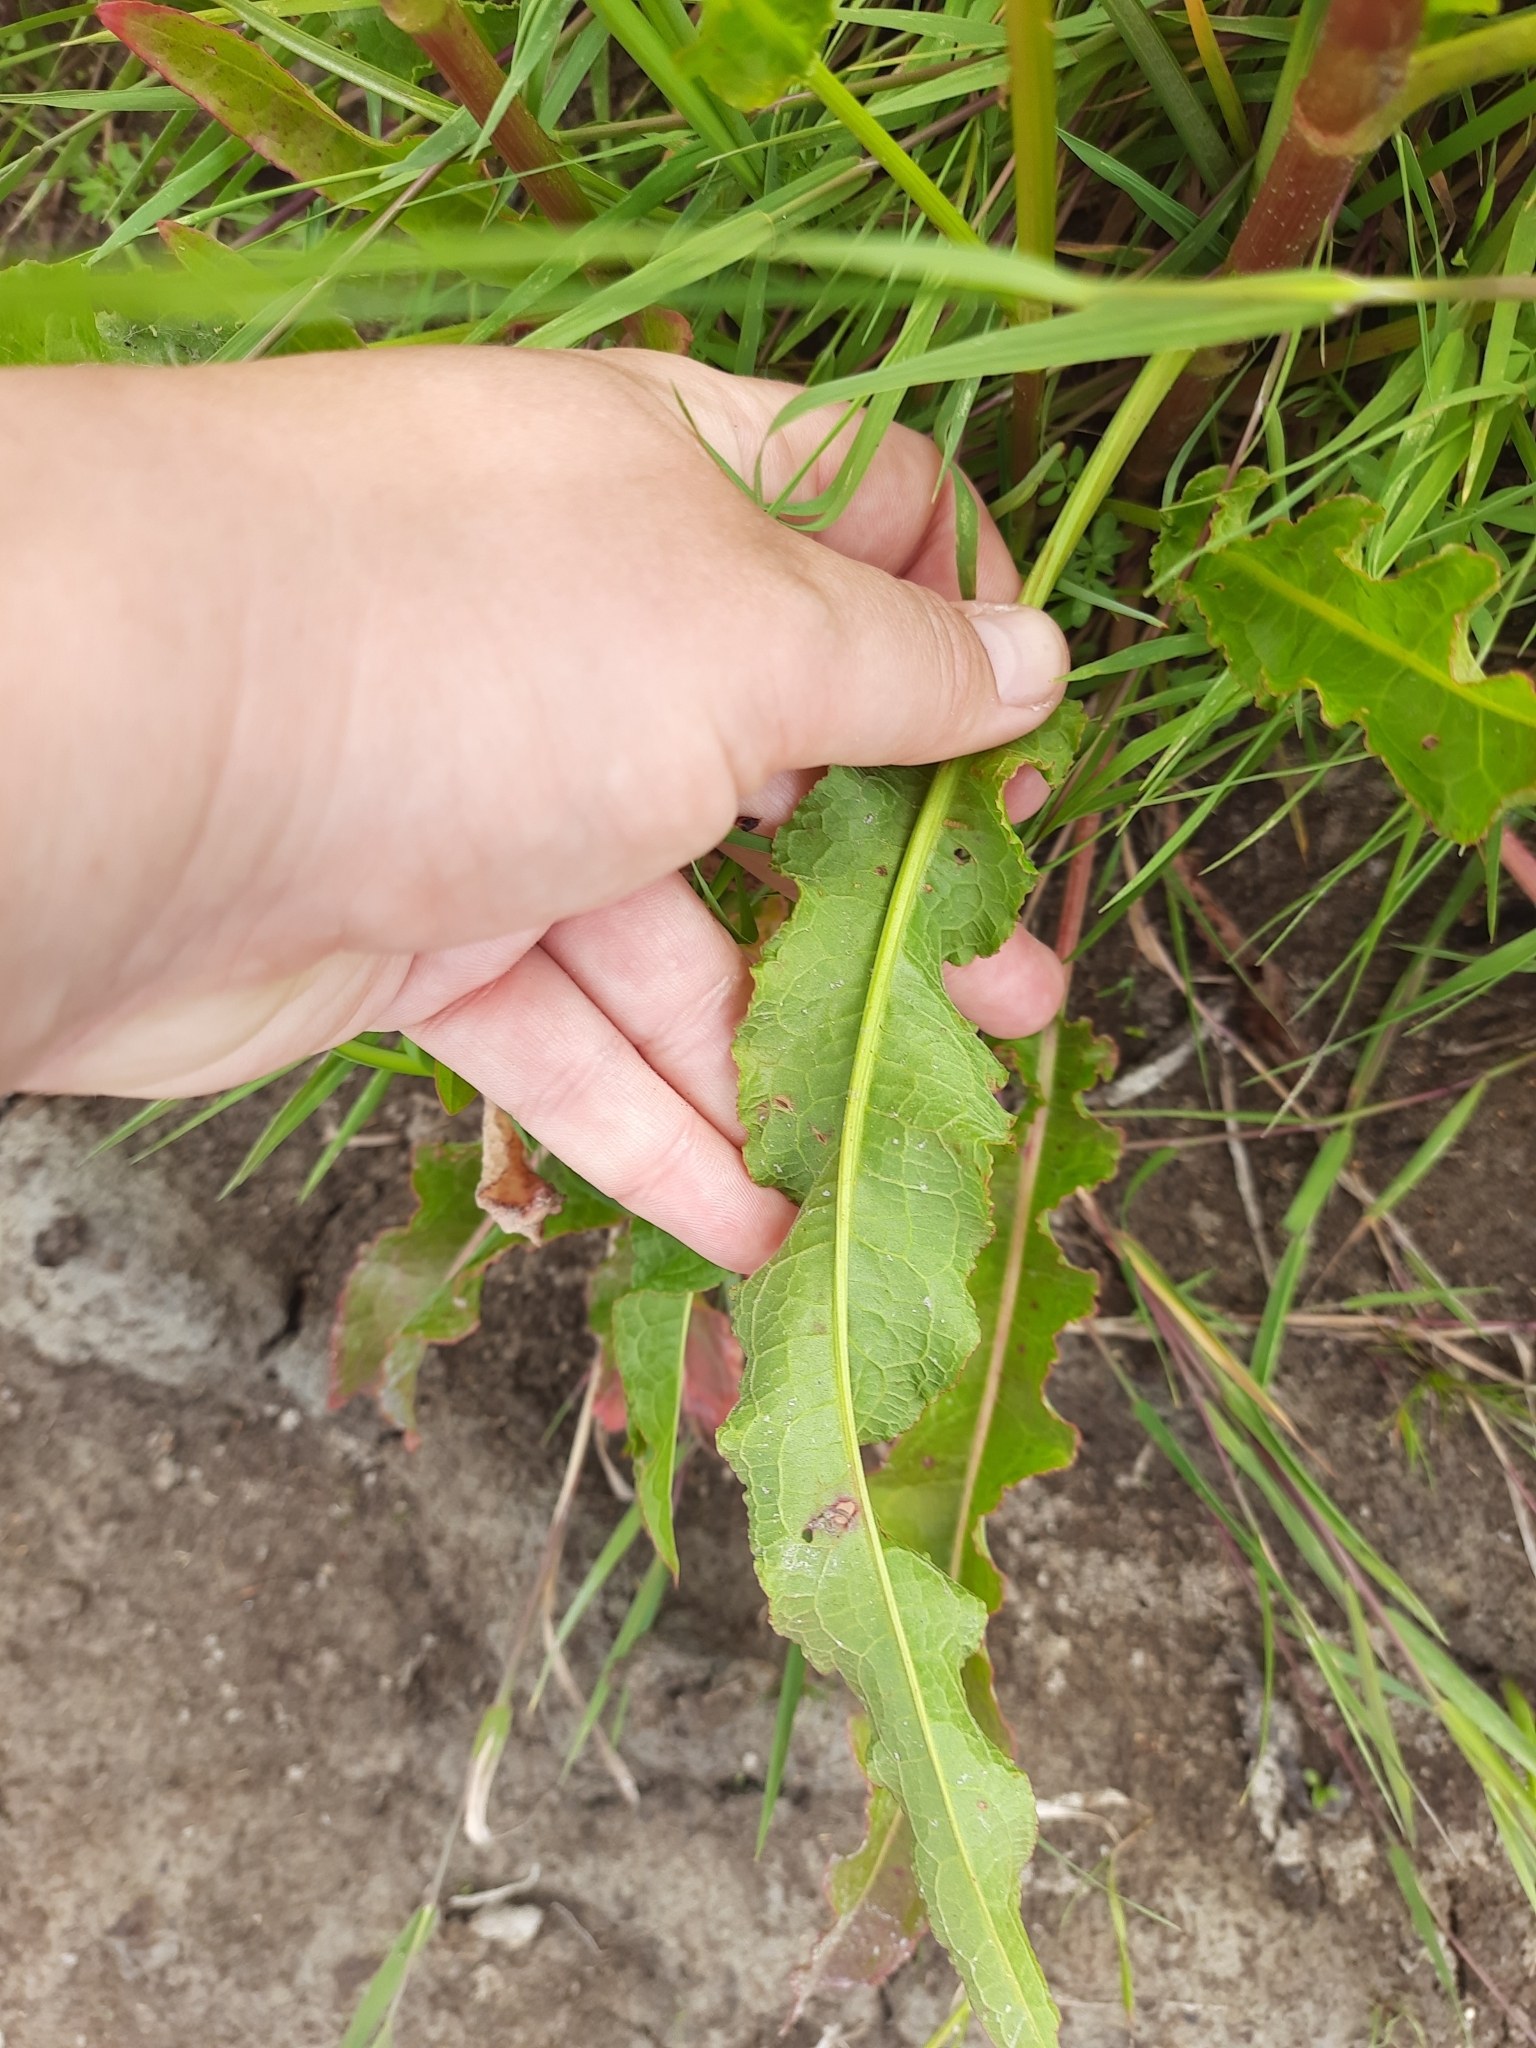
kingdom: Plantae
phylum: Tracheophyta
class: Magnoliopsida
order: Caryophyllales
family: Polygonaceae
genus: Rumex
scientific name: Rumex crispus
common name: Curled dock
